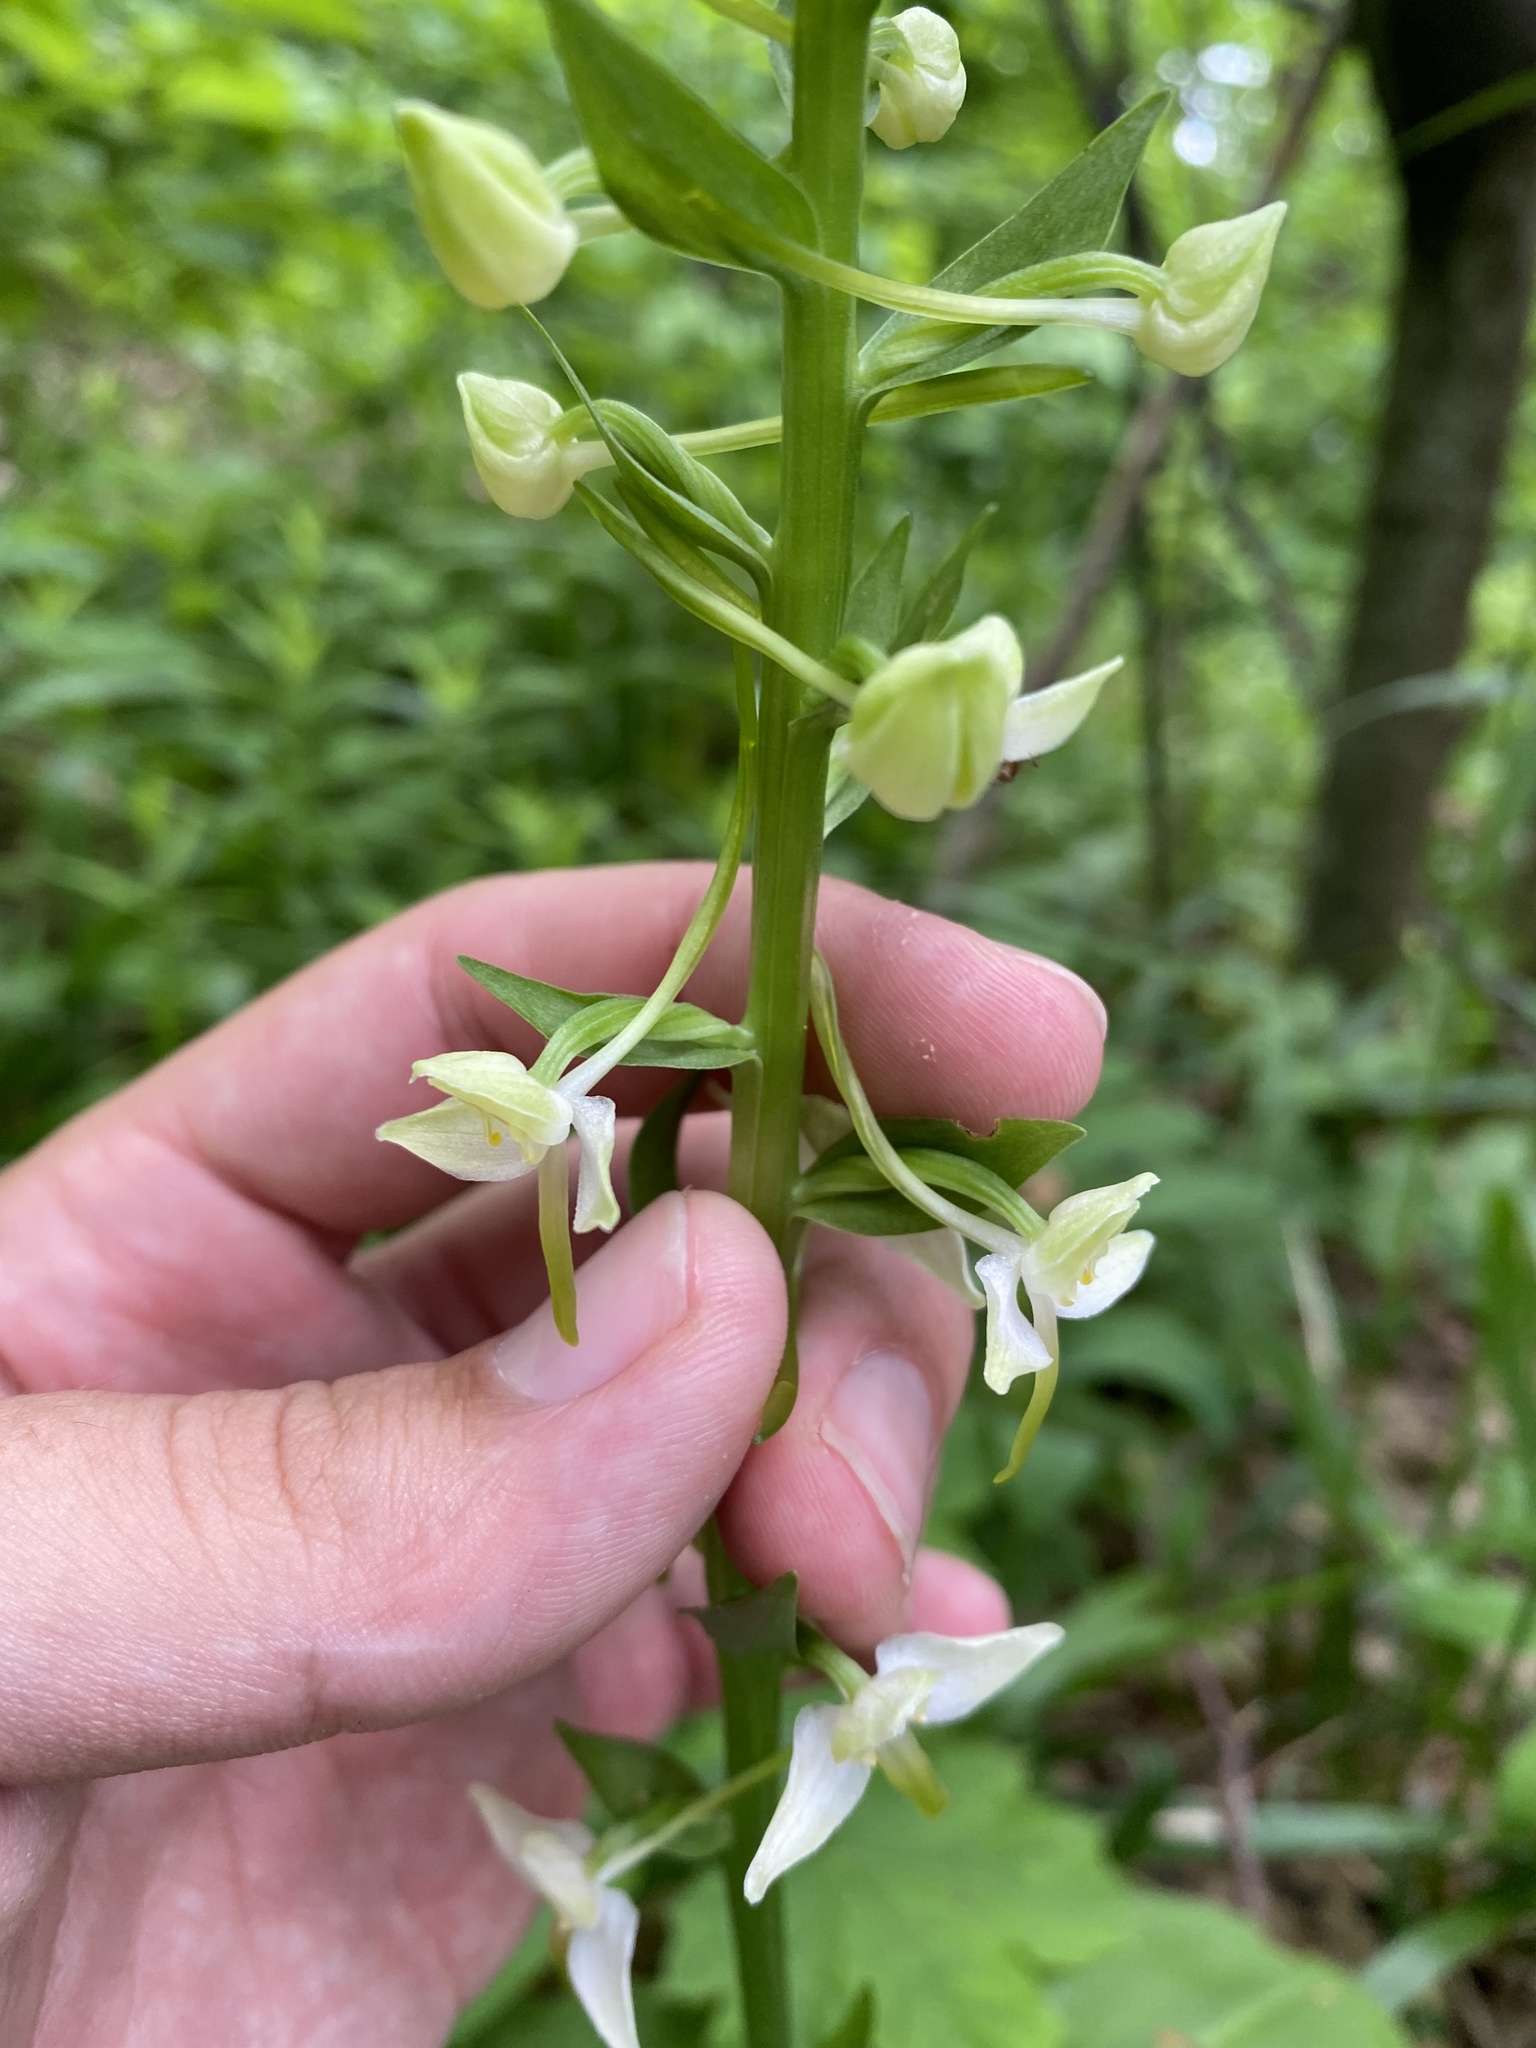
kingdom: Plantae
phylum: Tracheophyta
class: Liliopsida
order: Asparagales
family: Orchidaceae
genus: Platanthera
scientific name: Platanthera chlorantha
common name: Greater butterfly-orchid
